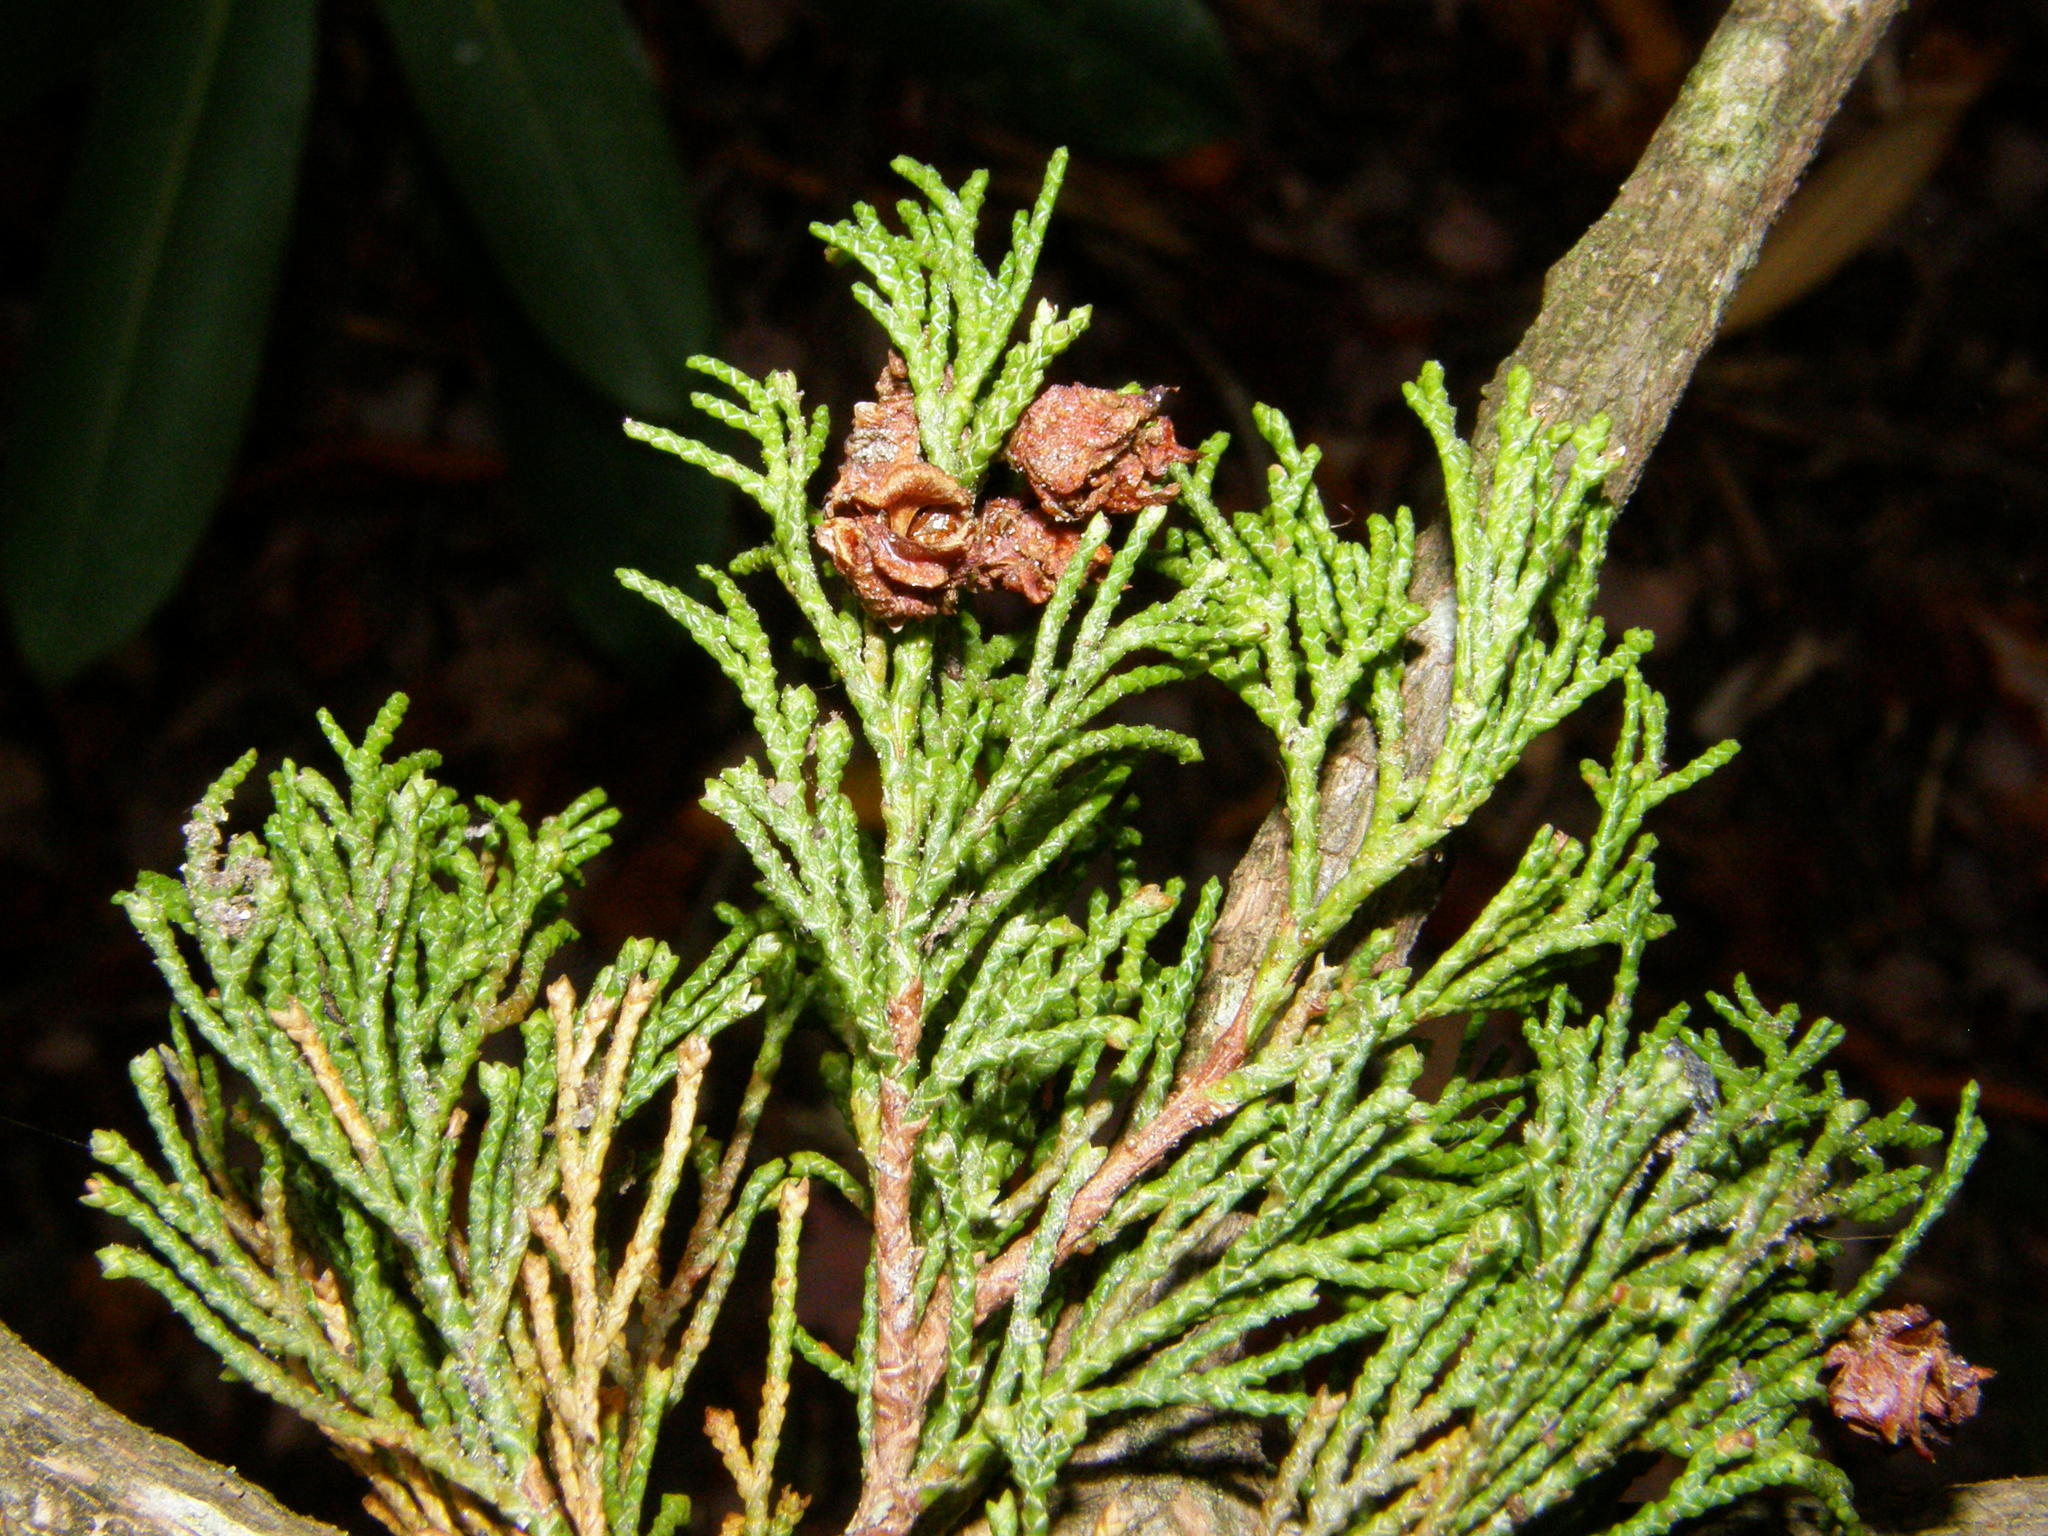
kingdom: Plantae
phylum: Tracheophyta
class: Pinopsida
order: Pinales
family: Cupressaceae
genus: Chamaecyparis
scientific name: Chamaecyparis thyoides
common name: Atlantic white cedar
